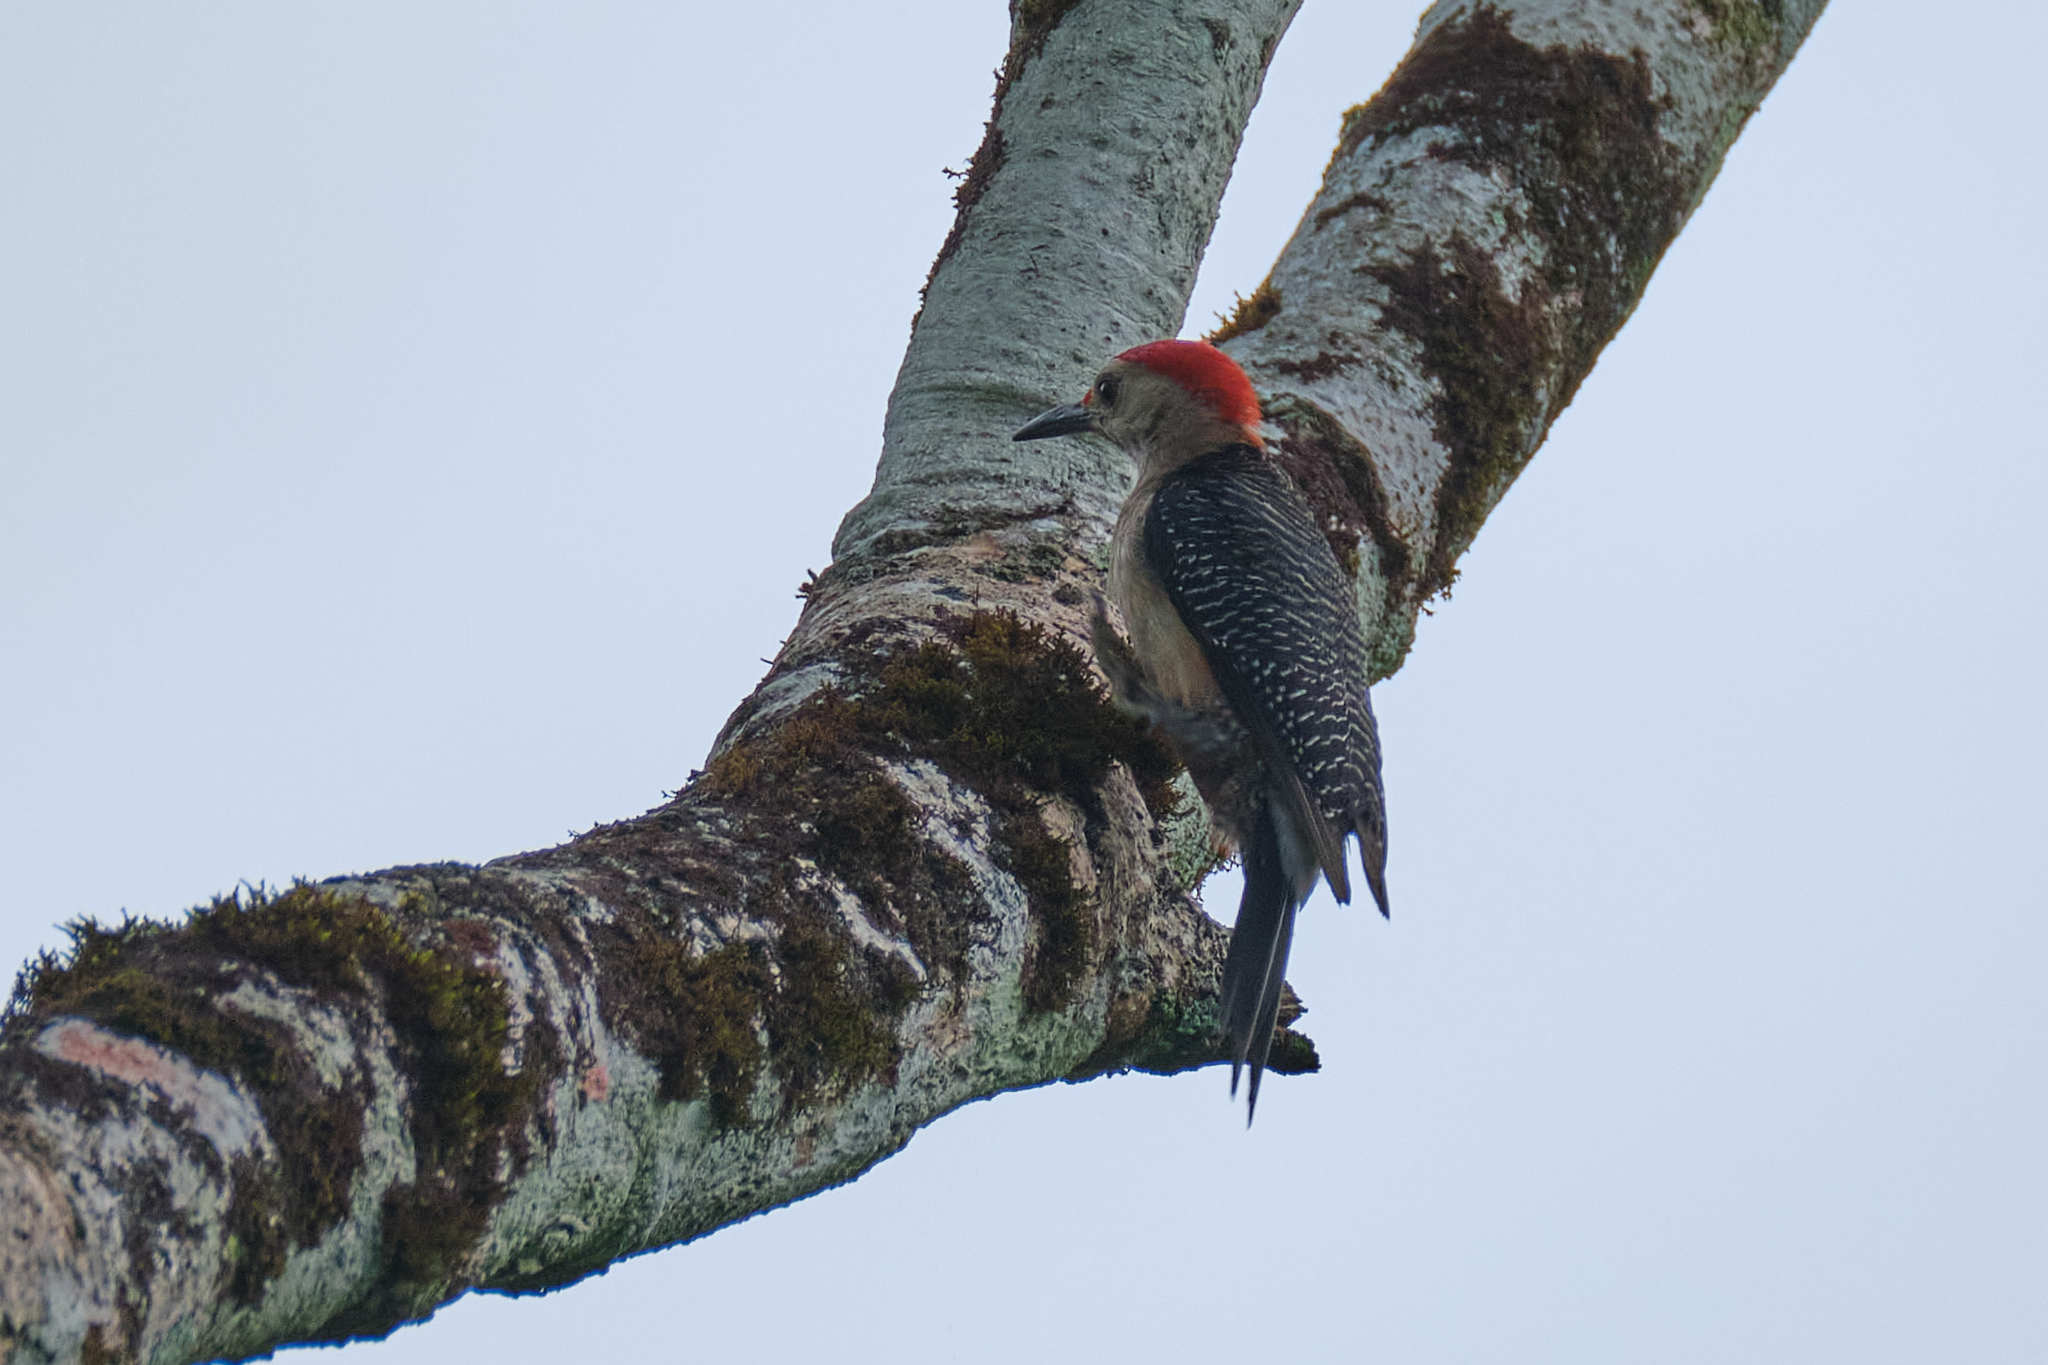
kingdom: Animalia
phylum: Chordata
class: Aves
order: Piciformes
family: Picidae
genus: Melanerpes
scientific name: Melanerpes aurifrons
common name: Golden-fronted woodpecker
